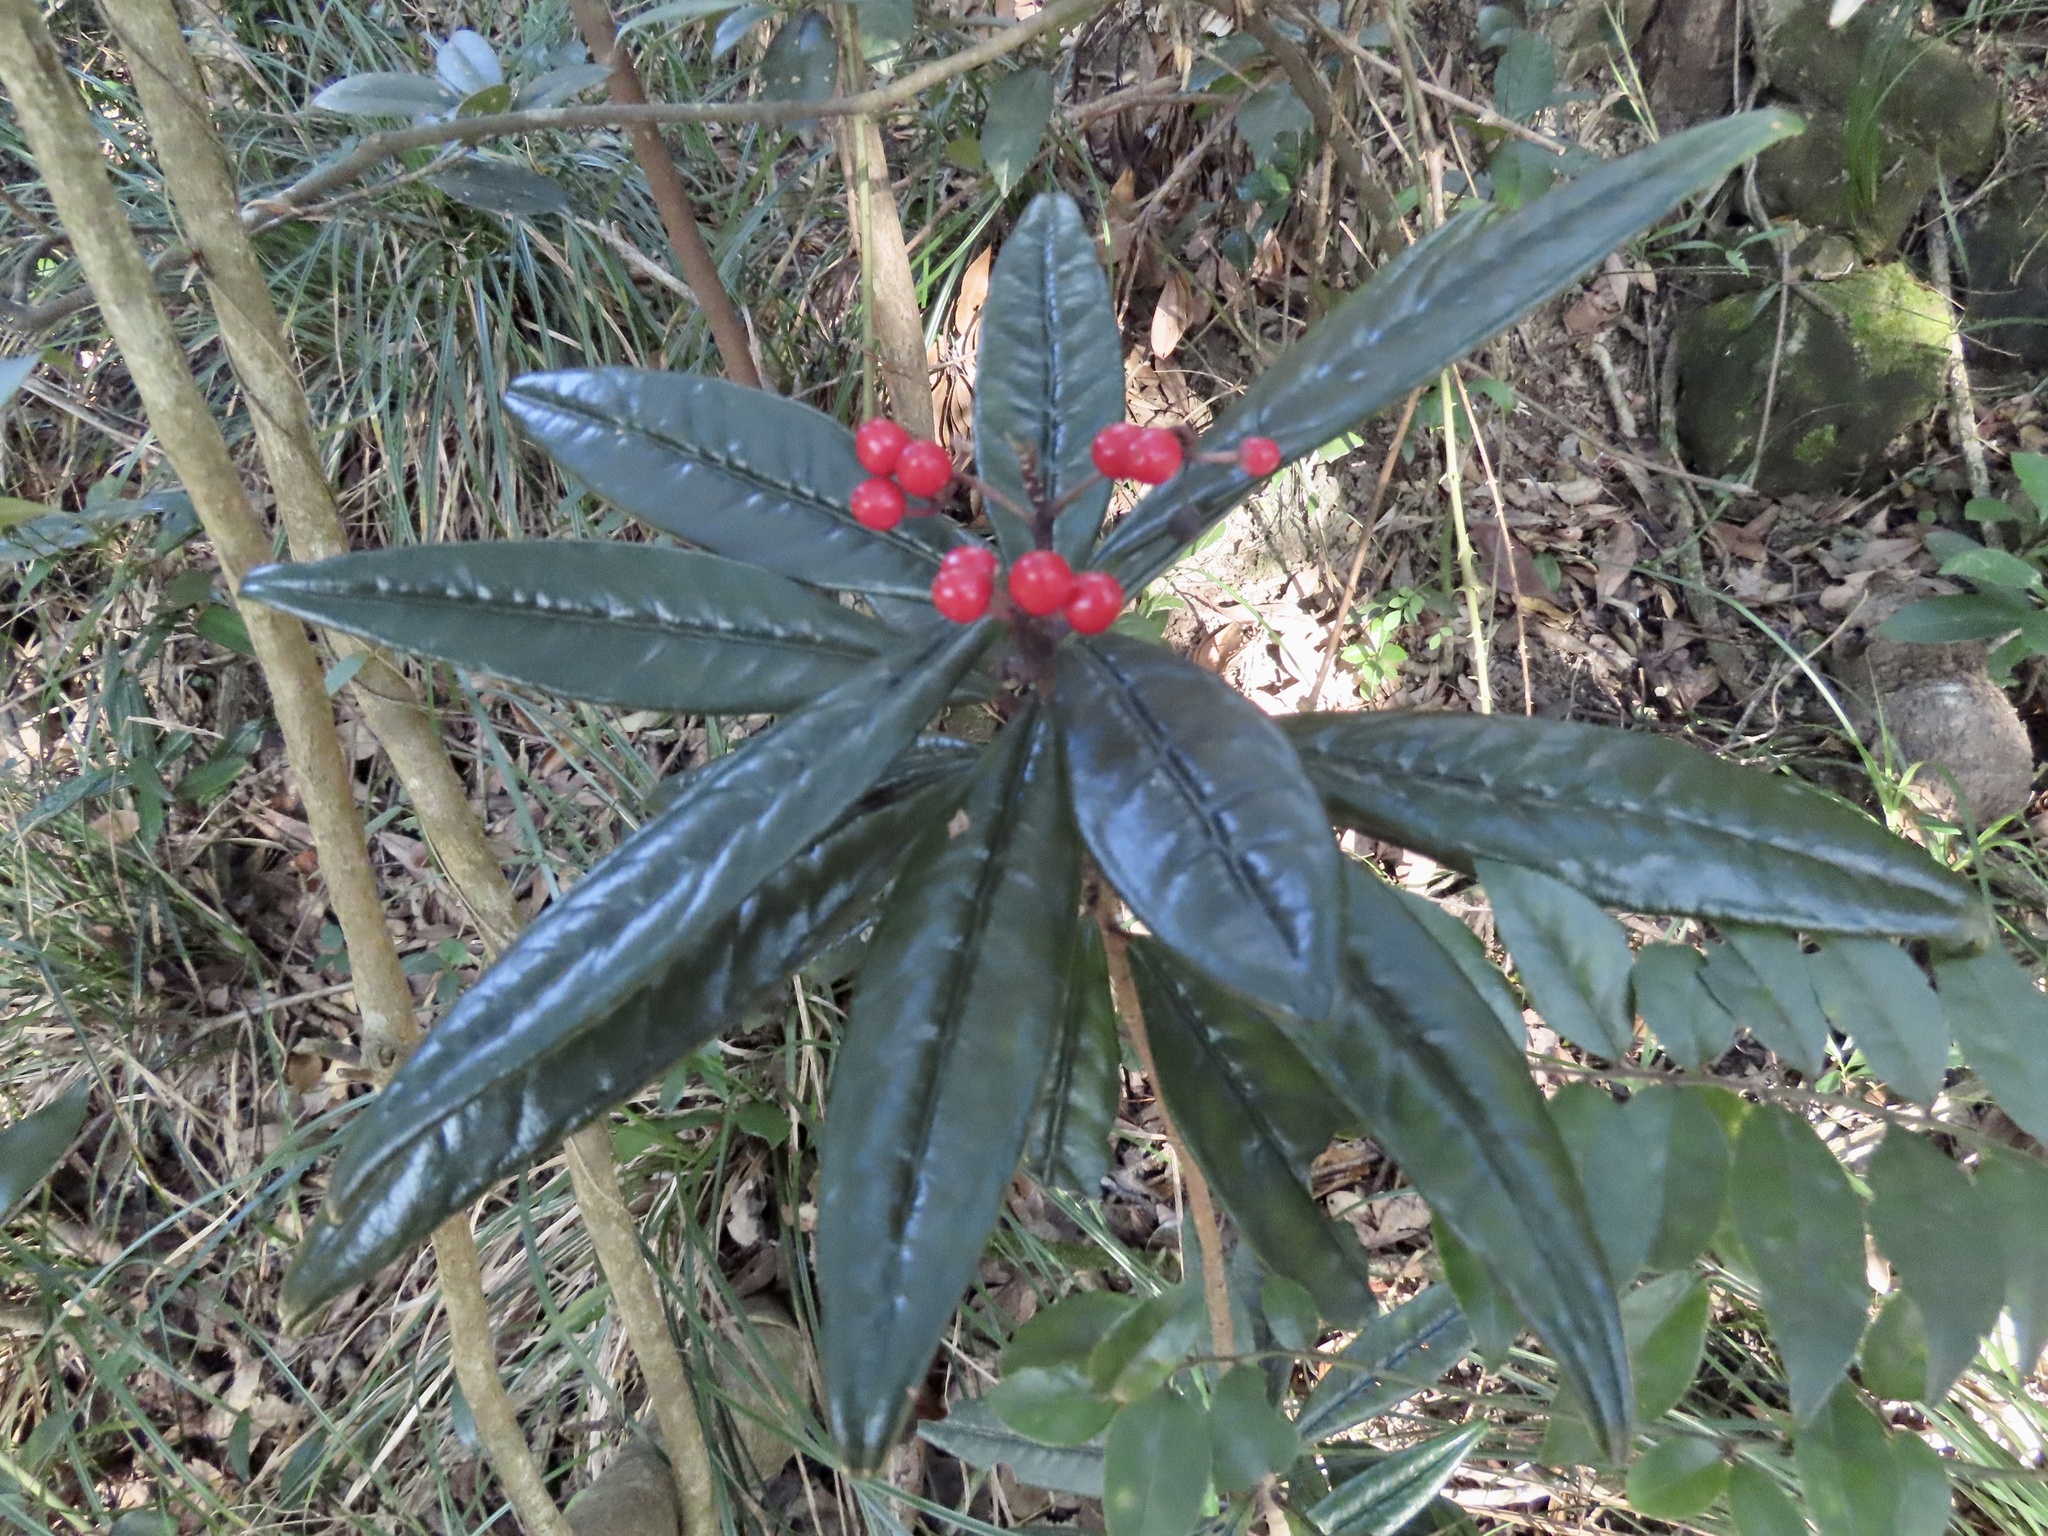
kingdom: Plantae
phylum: Tracheophyta
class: Magnoliopsida
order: Ericales
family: Primulaceae
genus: Ardisia
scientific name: Ardisia lindleyana
